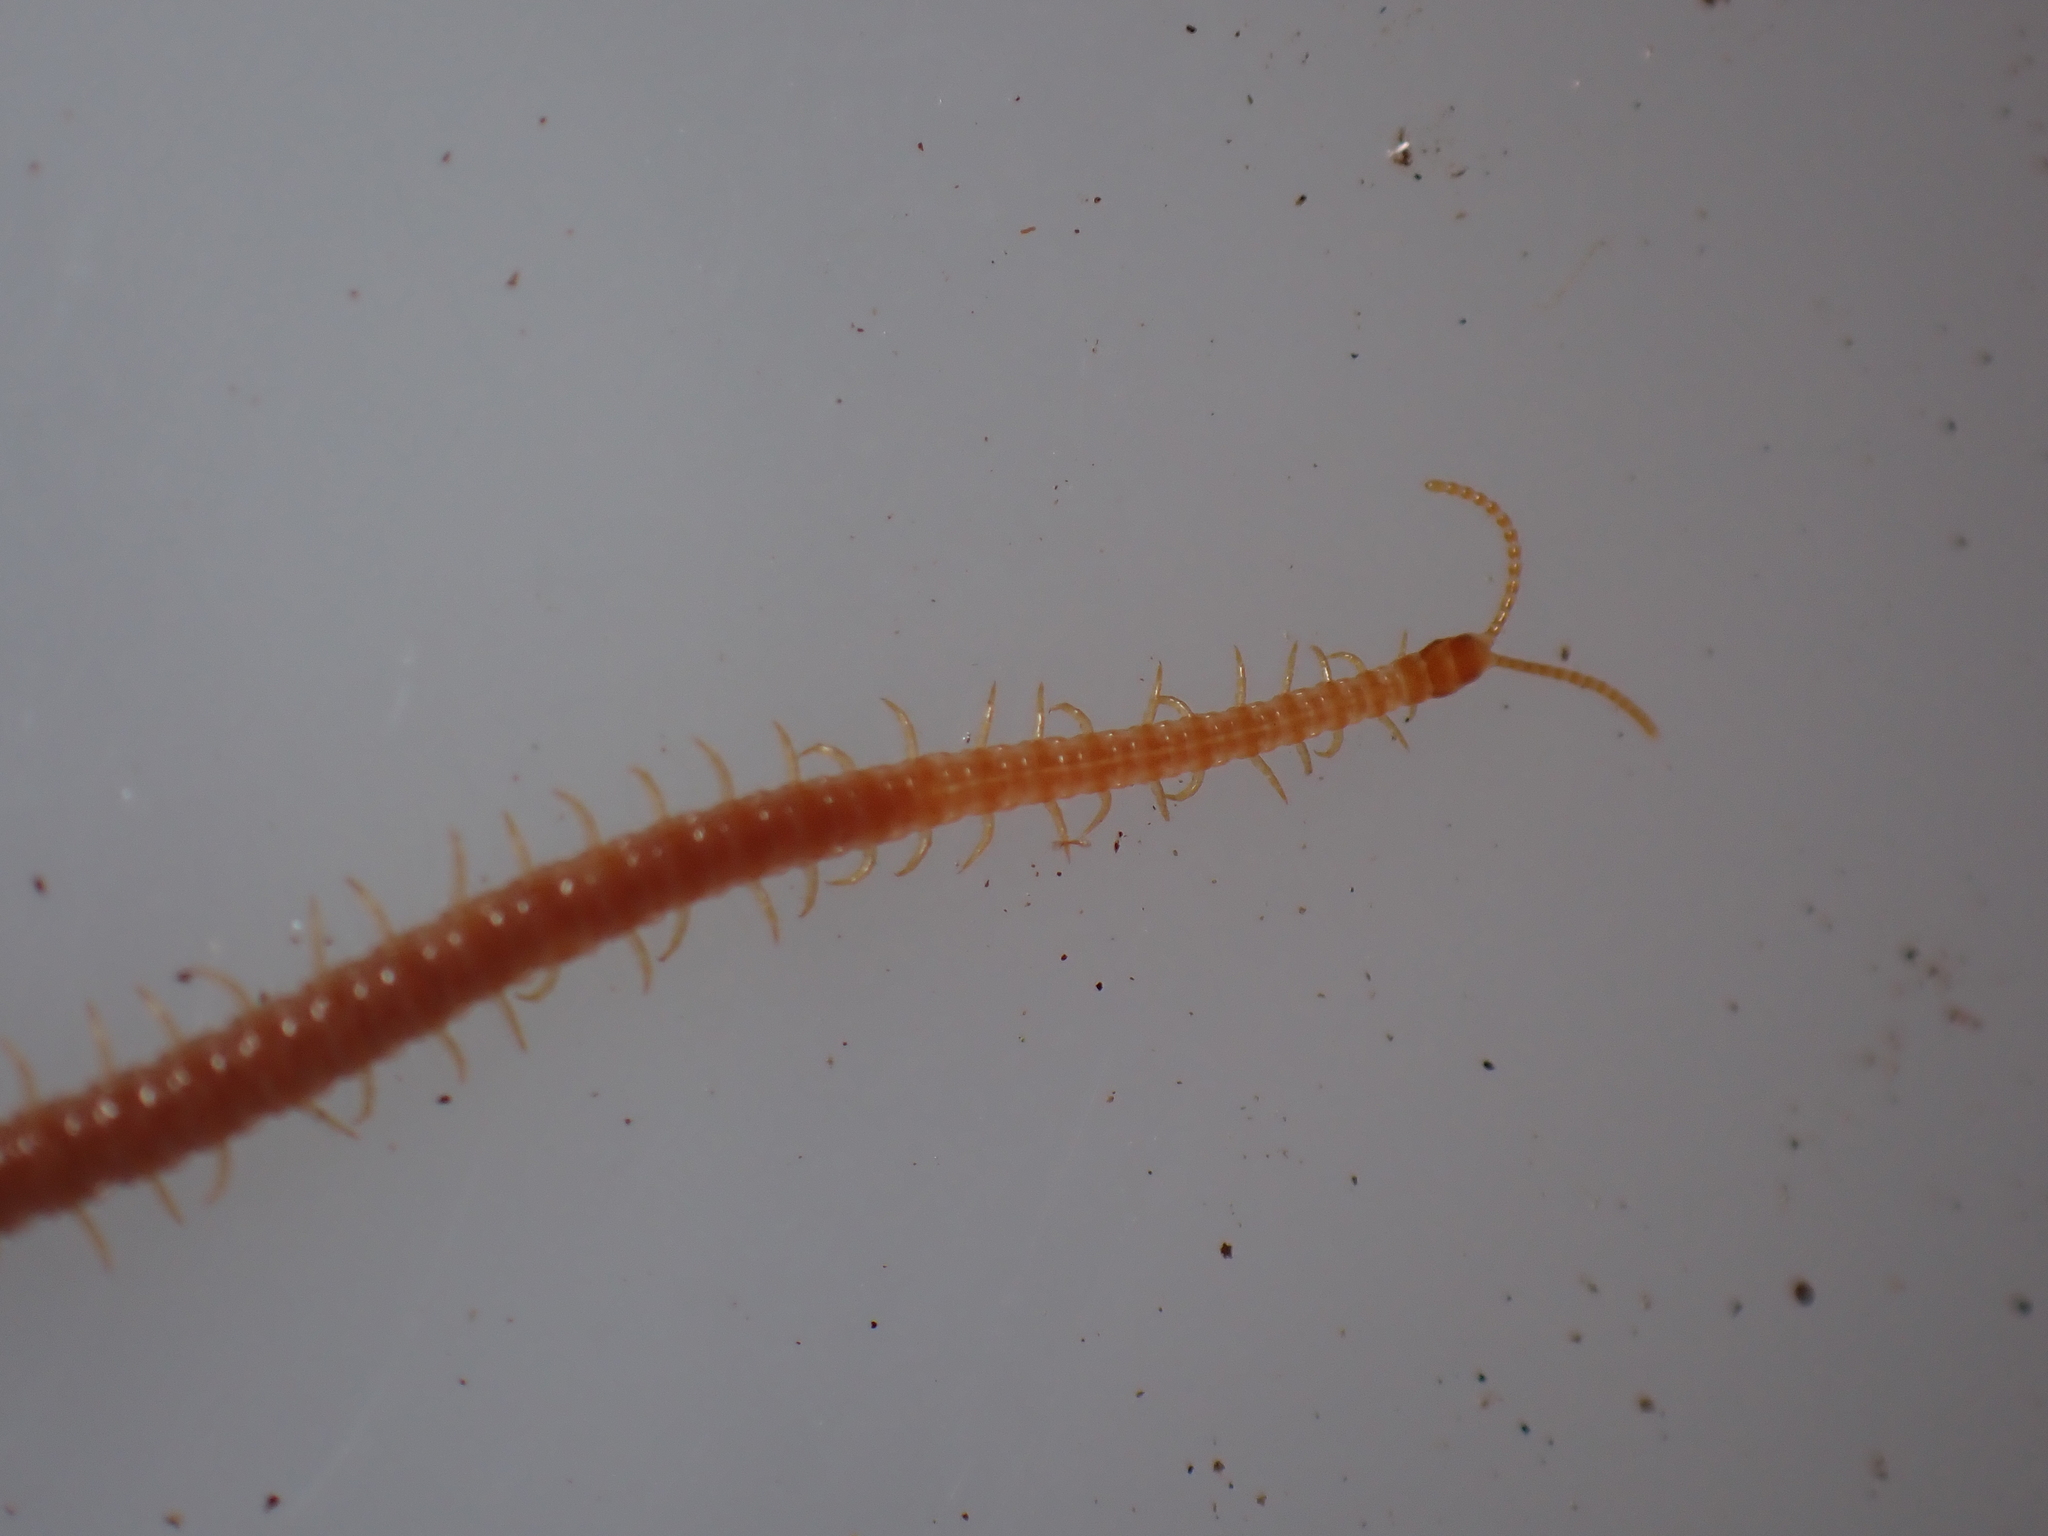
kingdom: Animalia
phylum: Arthropoda
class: Chilopoda
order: Geophilomorpha
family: Linotaeniidae
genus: Strigamia
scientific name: Strigamia crassipes
